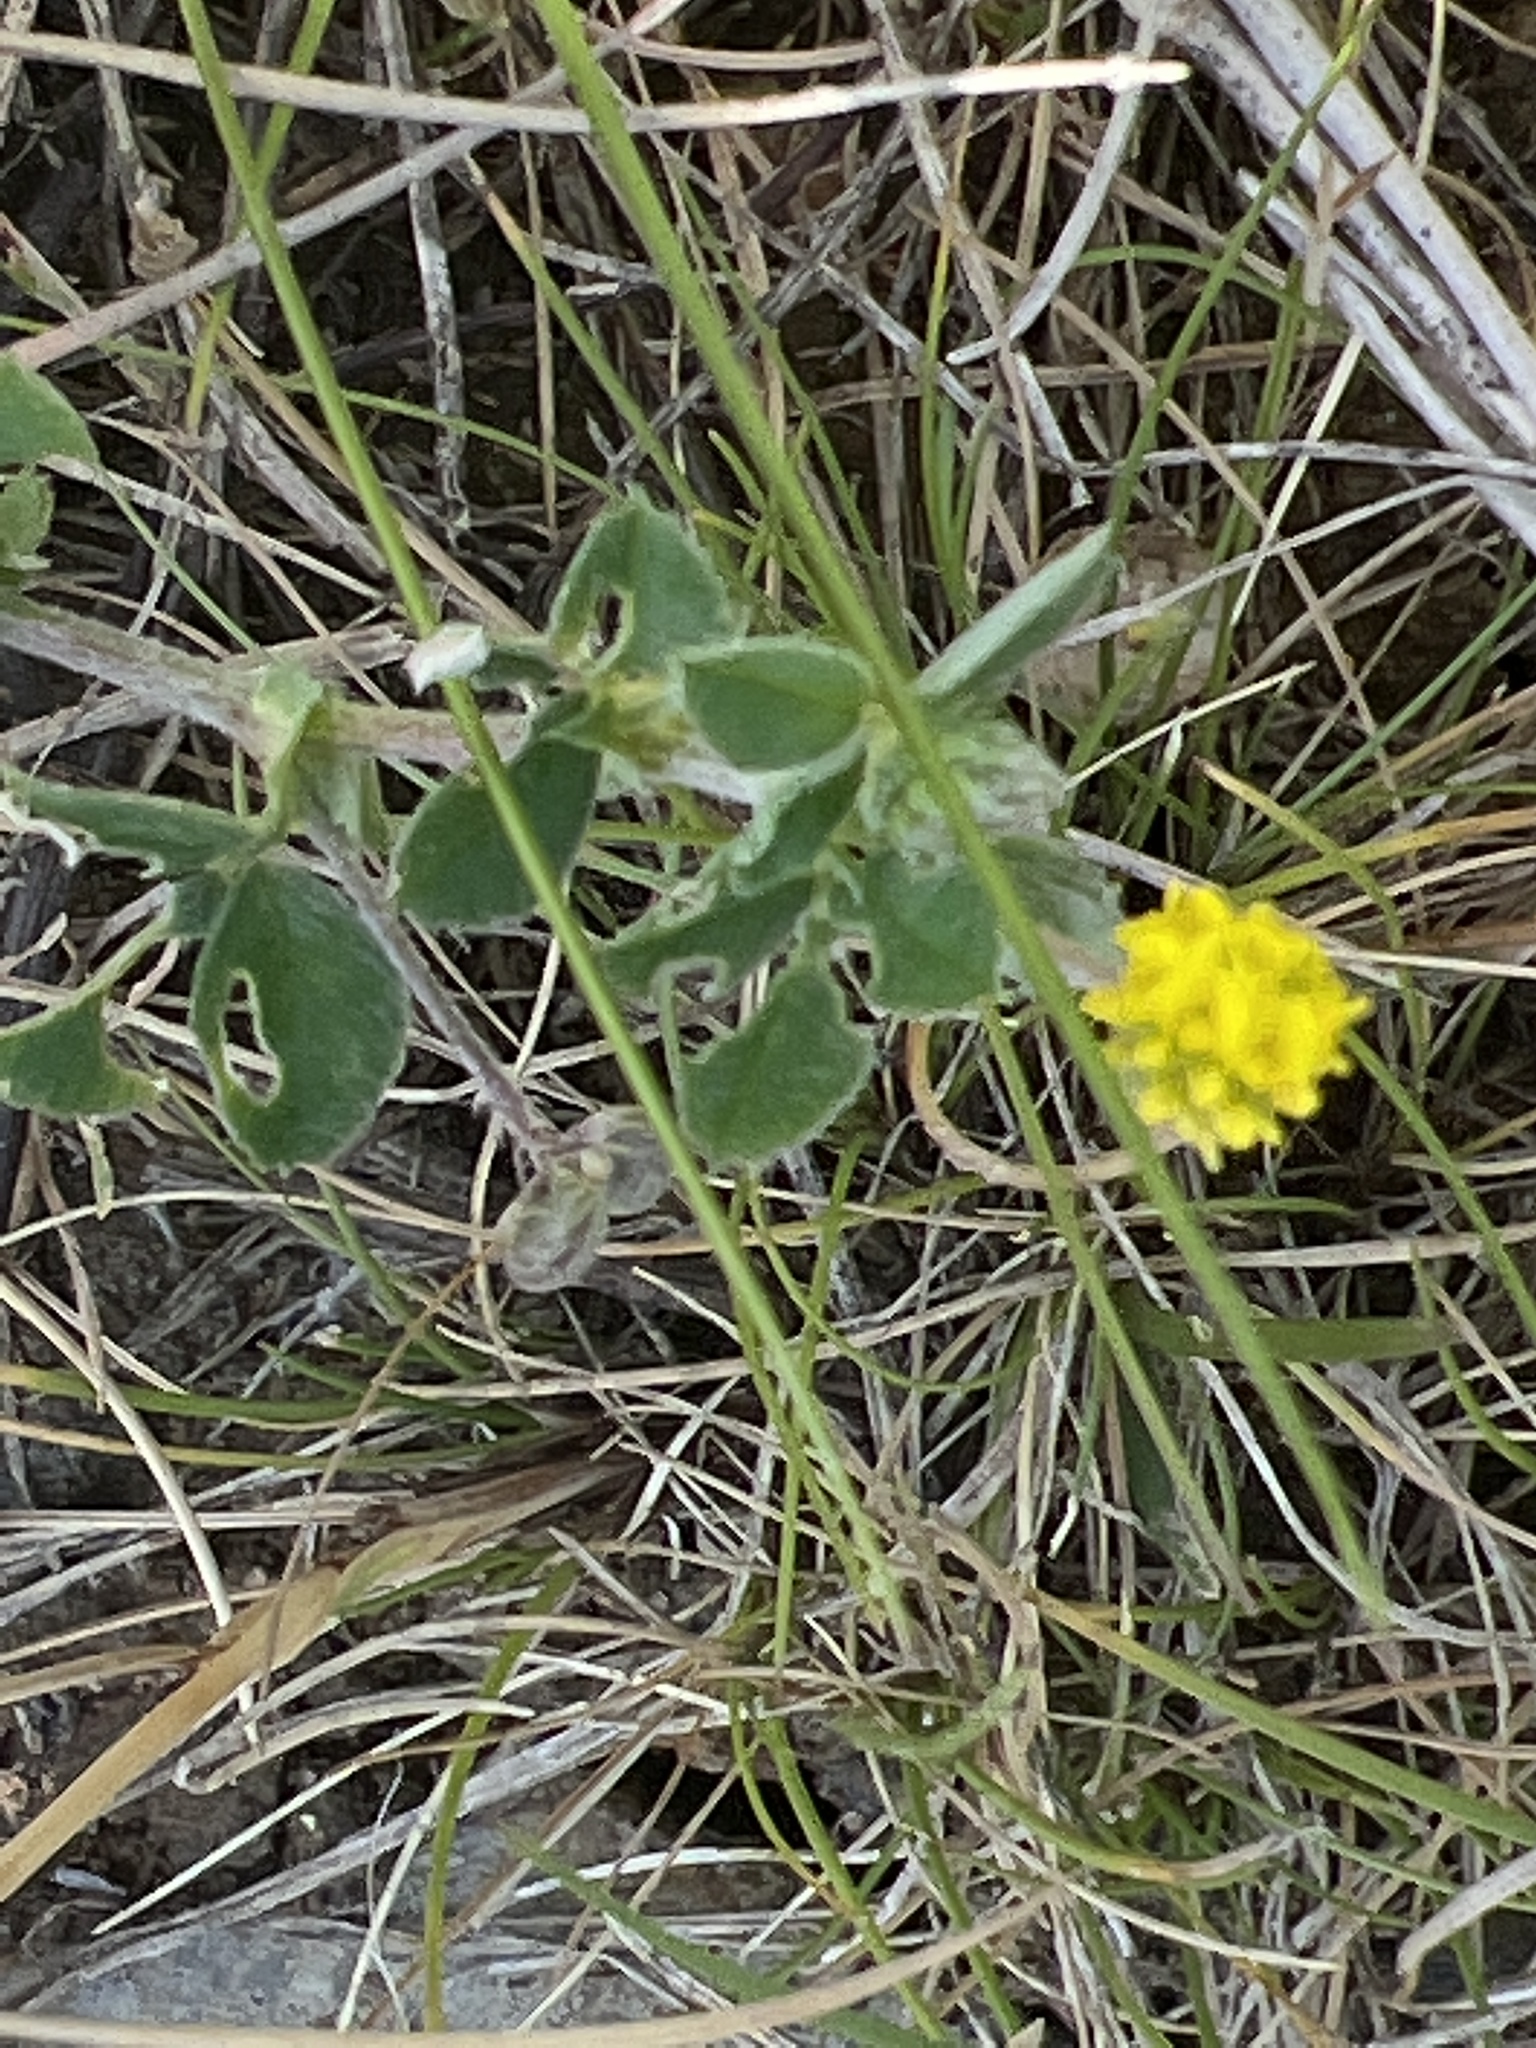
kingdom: Plantae
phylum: Tracheophyta
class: Magnoliopsida
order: Fabales
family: Fabaceae
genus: Medicago
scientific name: Medicago lupulina
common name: Black medick
